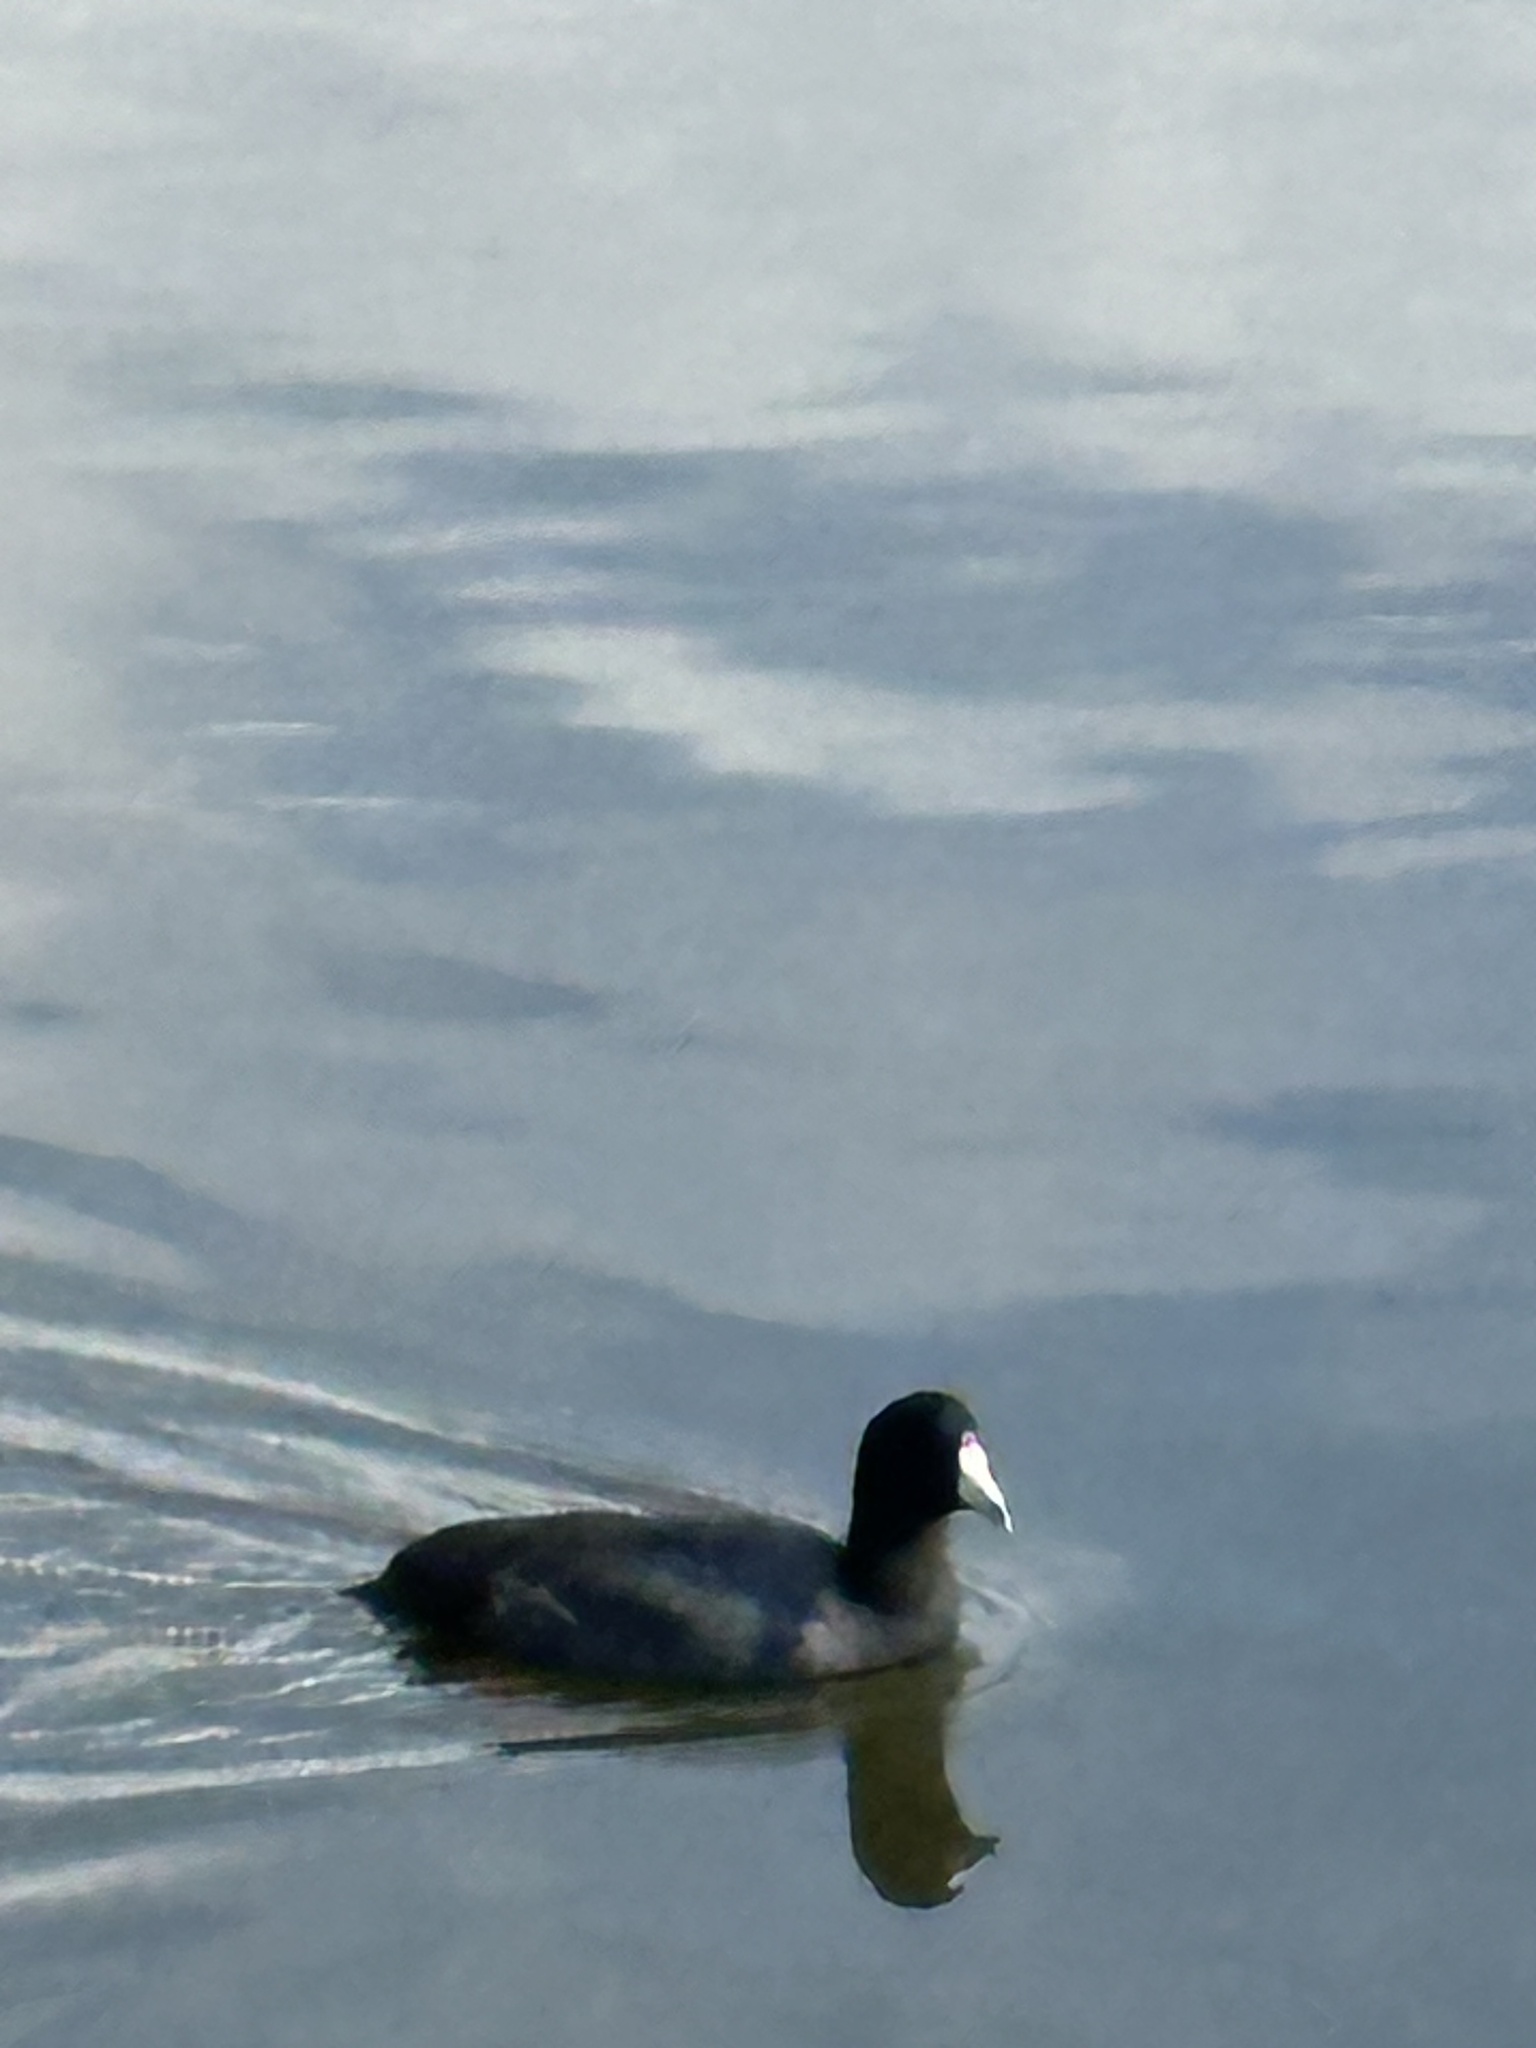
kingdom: Animalia
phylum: Chordata
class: Aves
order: Gruiformes
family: Rallidae
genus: Fulica
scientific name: Fulica americana
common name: American coot
